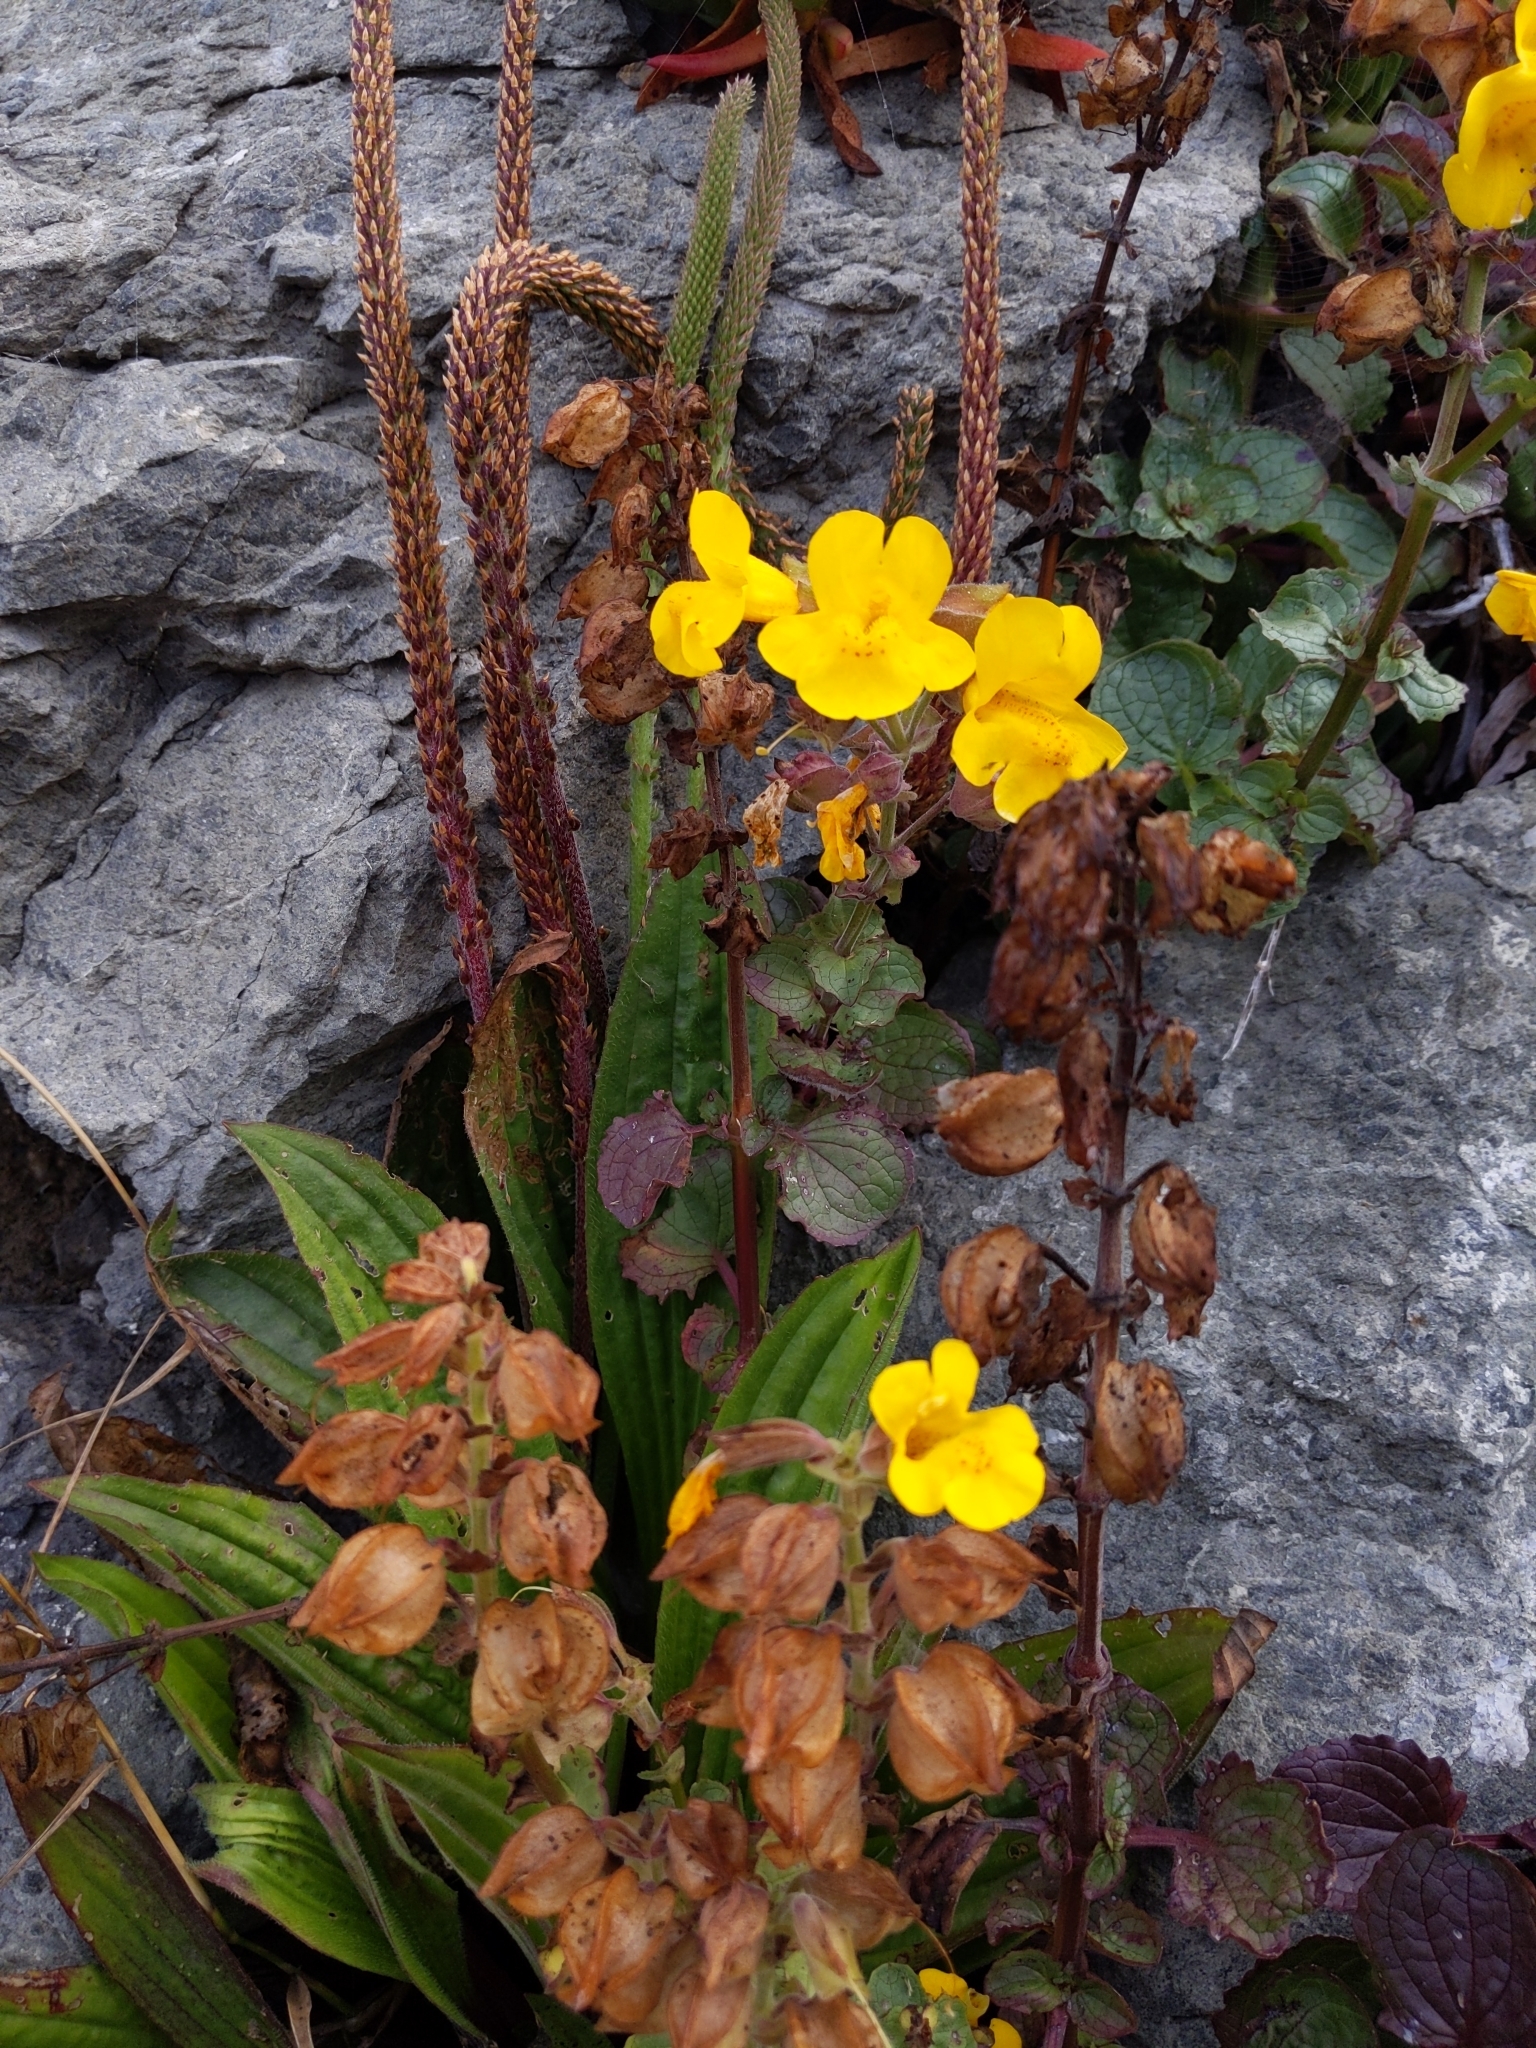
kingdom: Plantae
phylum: Tracheophyta
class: Magnoliopsida
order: Lamiales
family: Phrymaceae
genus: Erythranthe
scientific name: Erythranthe grandis
